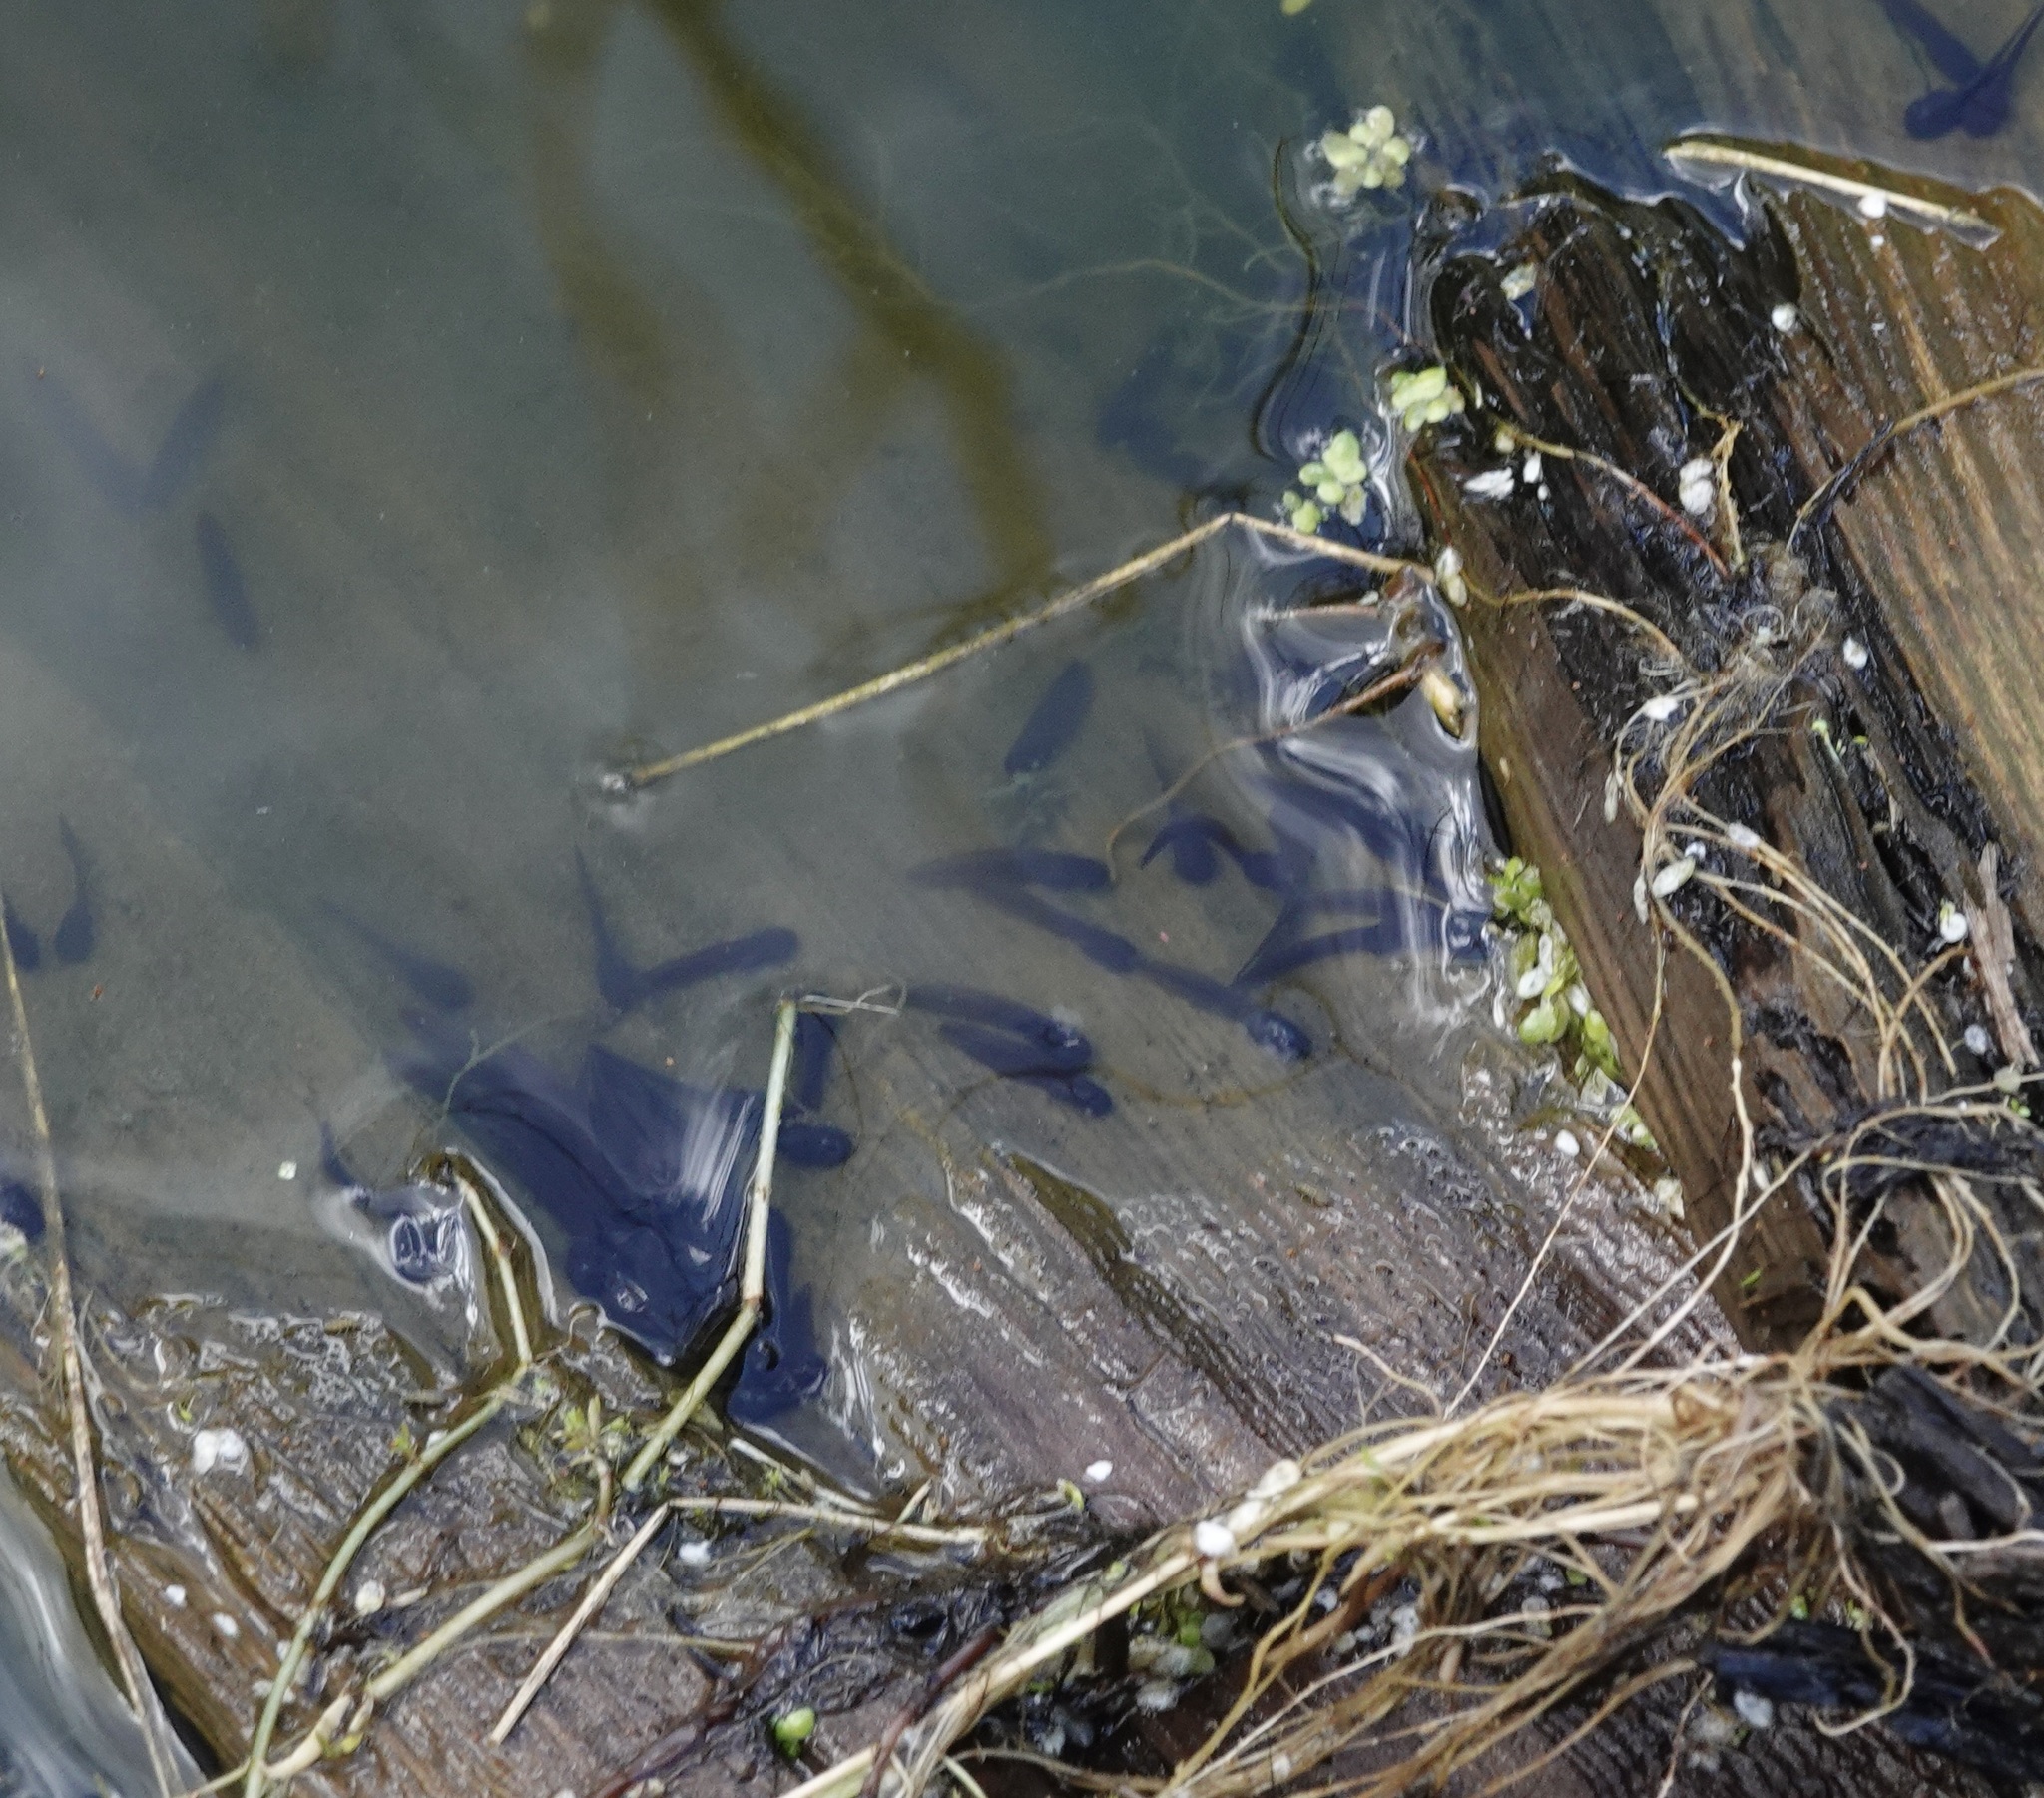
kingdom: Animalia
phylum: Chordata
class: Amphibia
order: Anura
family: Ranidae
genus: Rana
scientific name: Rana temporaria
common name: Common frog
